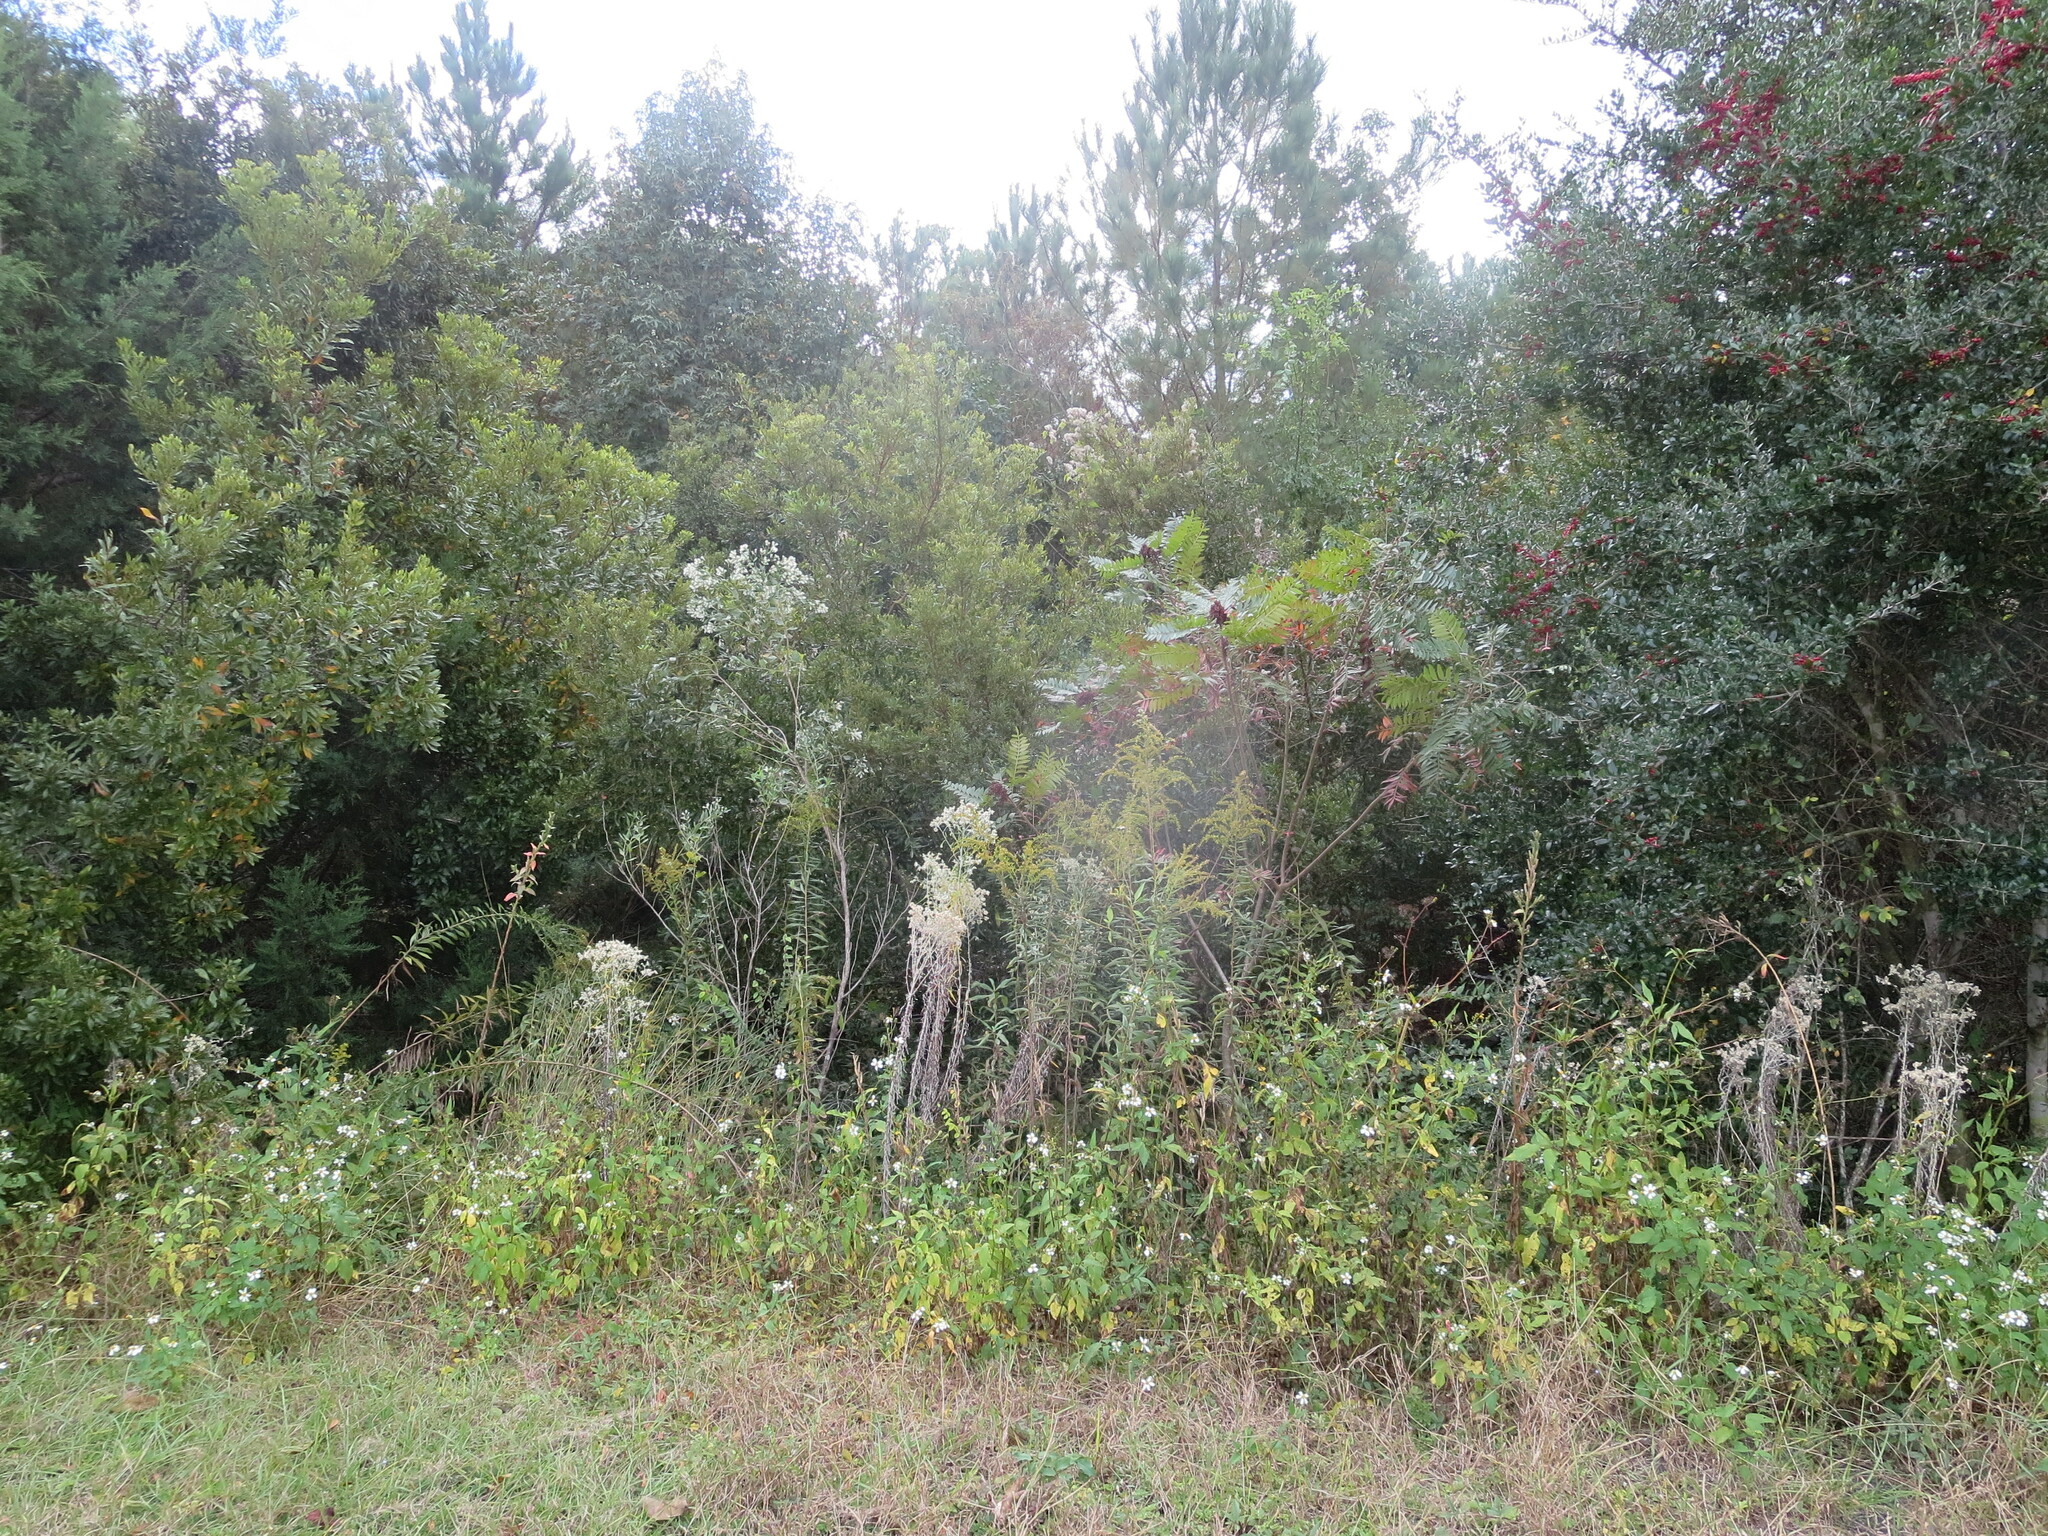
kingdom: Plantae
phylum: Tracheophyta
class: Magnoliopsida
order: Sapindales
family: Anacardiaceae
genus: Rhus
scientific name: Rhus copallina
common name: Shining sumac
